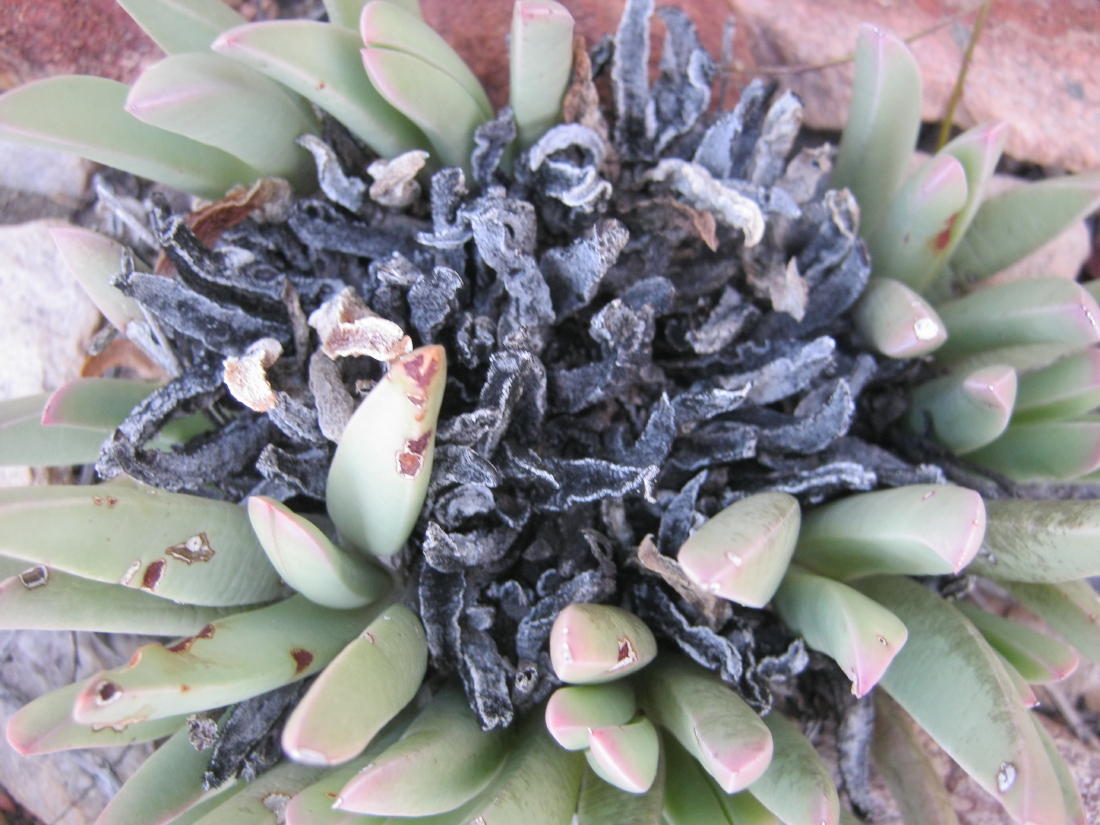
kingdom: Plantae
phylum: Tracheophyta
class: Magnoliopsida
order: Caryophyllales
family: Aizoaceae
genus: Machairophyllum
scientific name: Machairophyllum albidum
